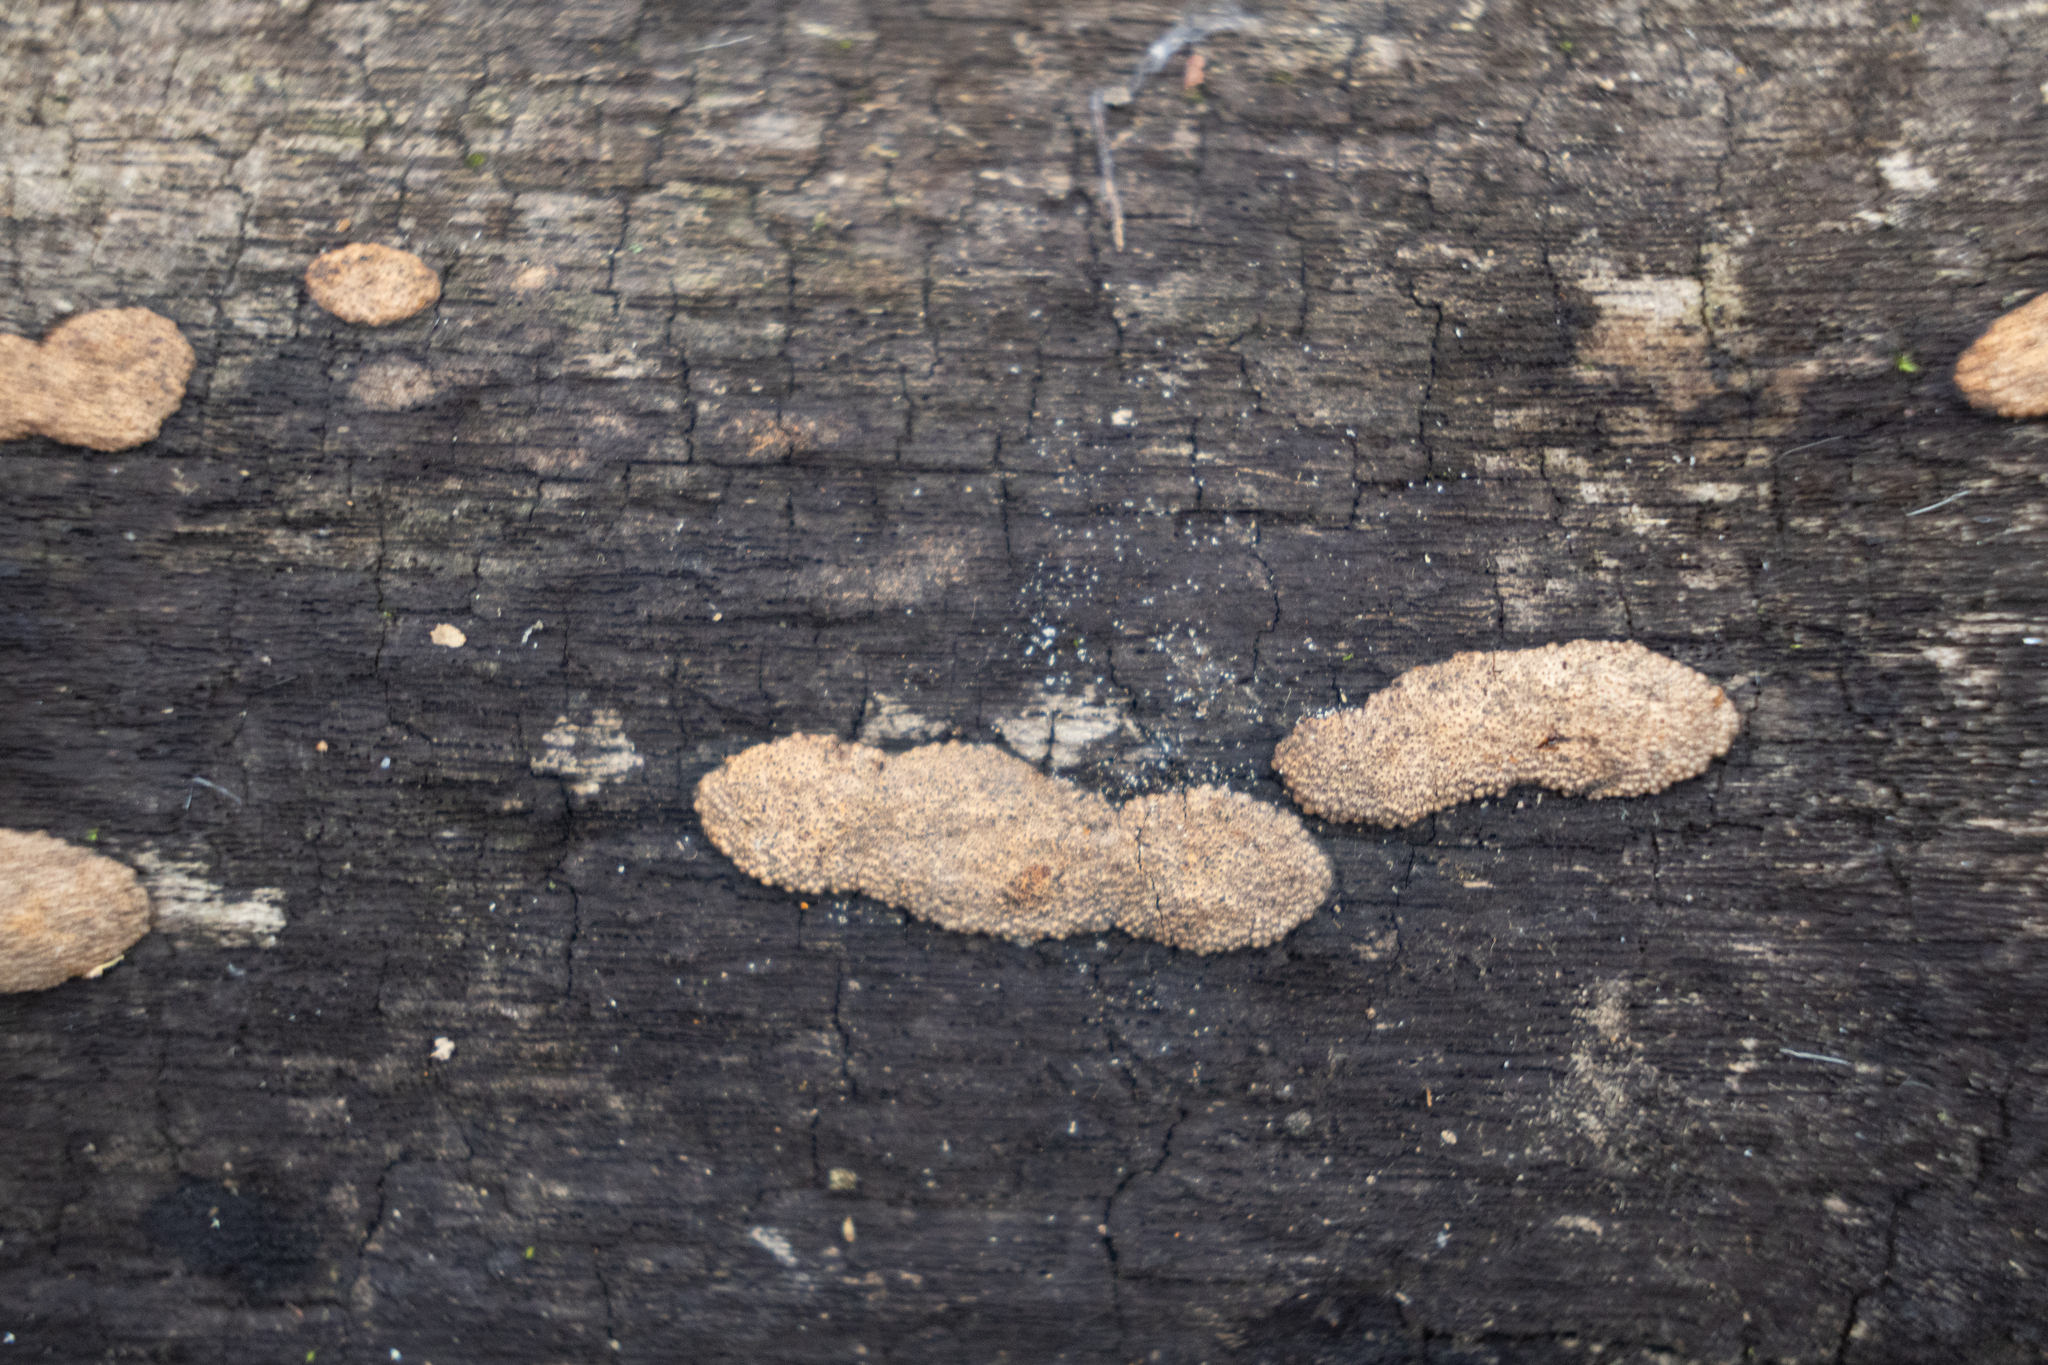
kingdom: Fungi
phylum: Ascomycota
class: Sordariomycetes
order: Xylariales
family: Hypoxylaceae
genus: Hypoxylon
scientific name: Hypoxylon rubiginosum
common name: Rusty woodwart
